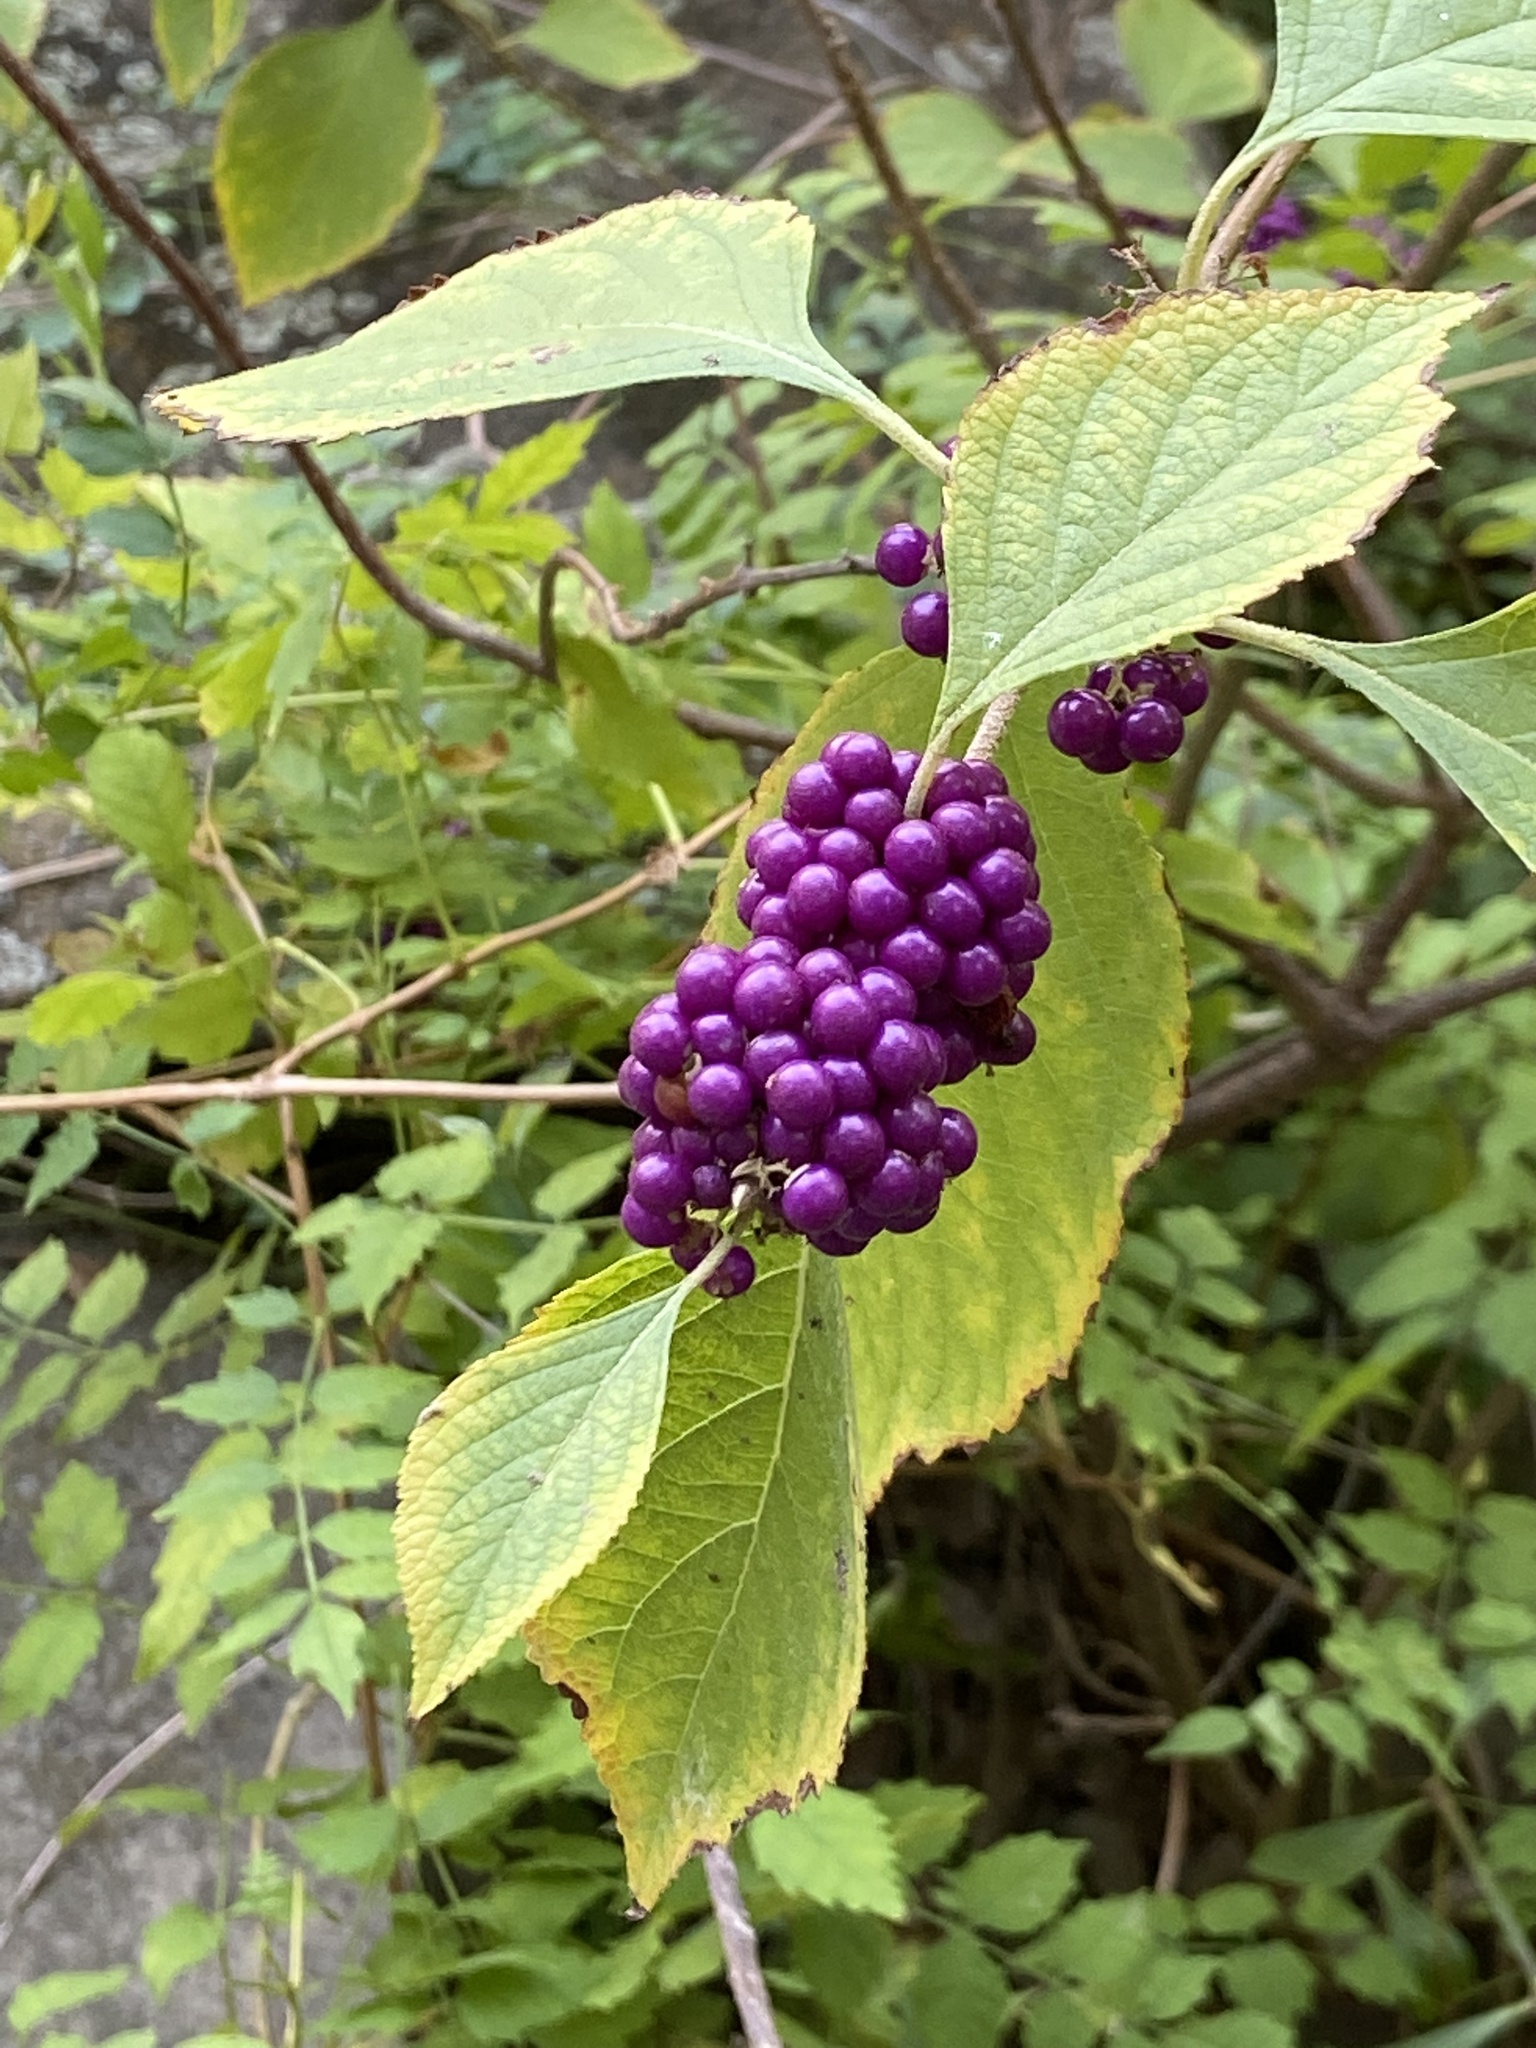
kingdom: Plantae
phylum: Tracheophyta
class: Magnoliopsida
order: Lamiales
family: Lamiaceae
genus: Callicarpa
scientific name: Callicarpa americana
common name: American beautyberry
